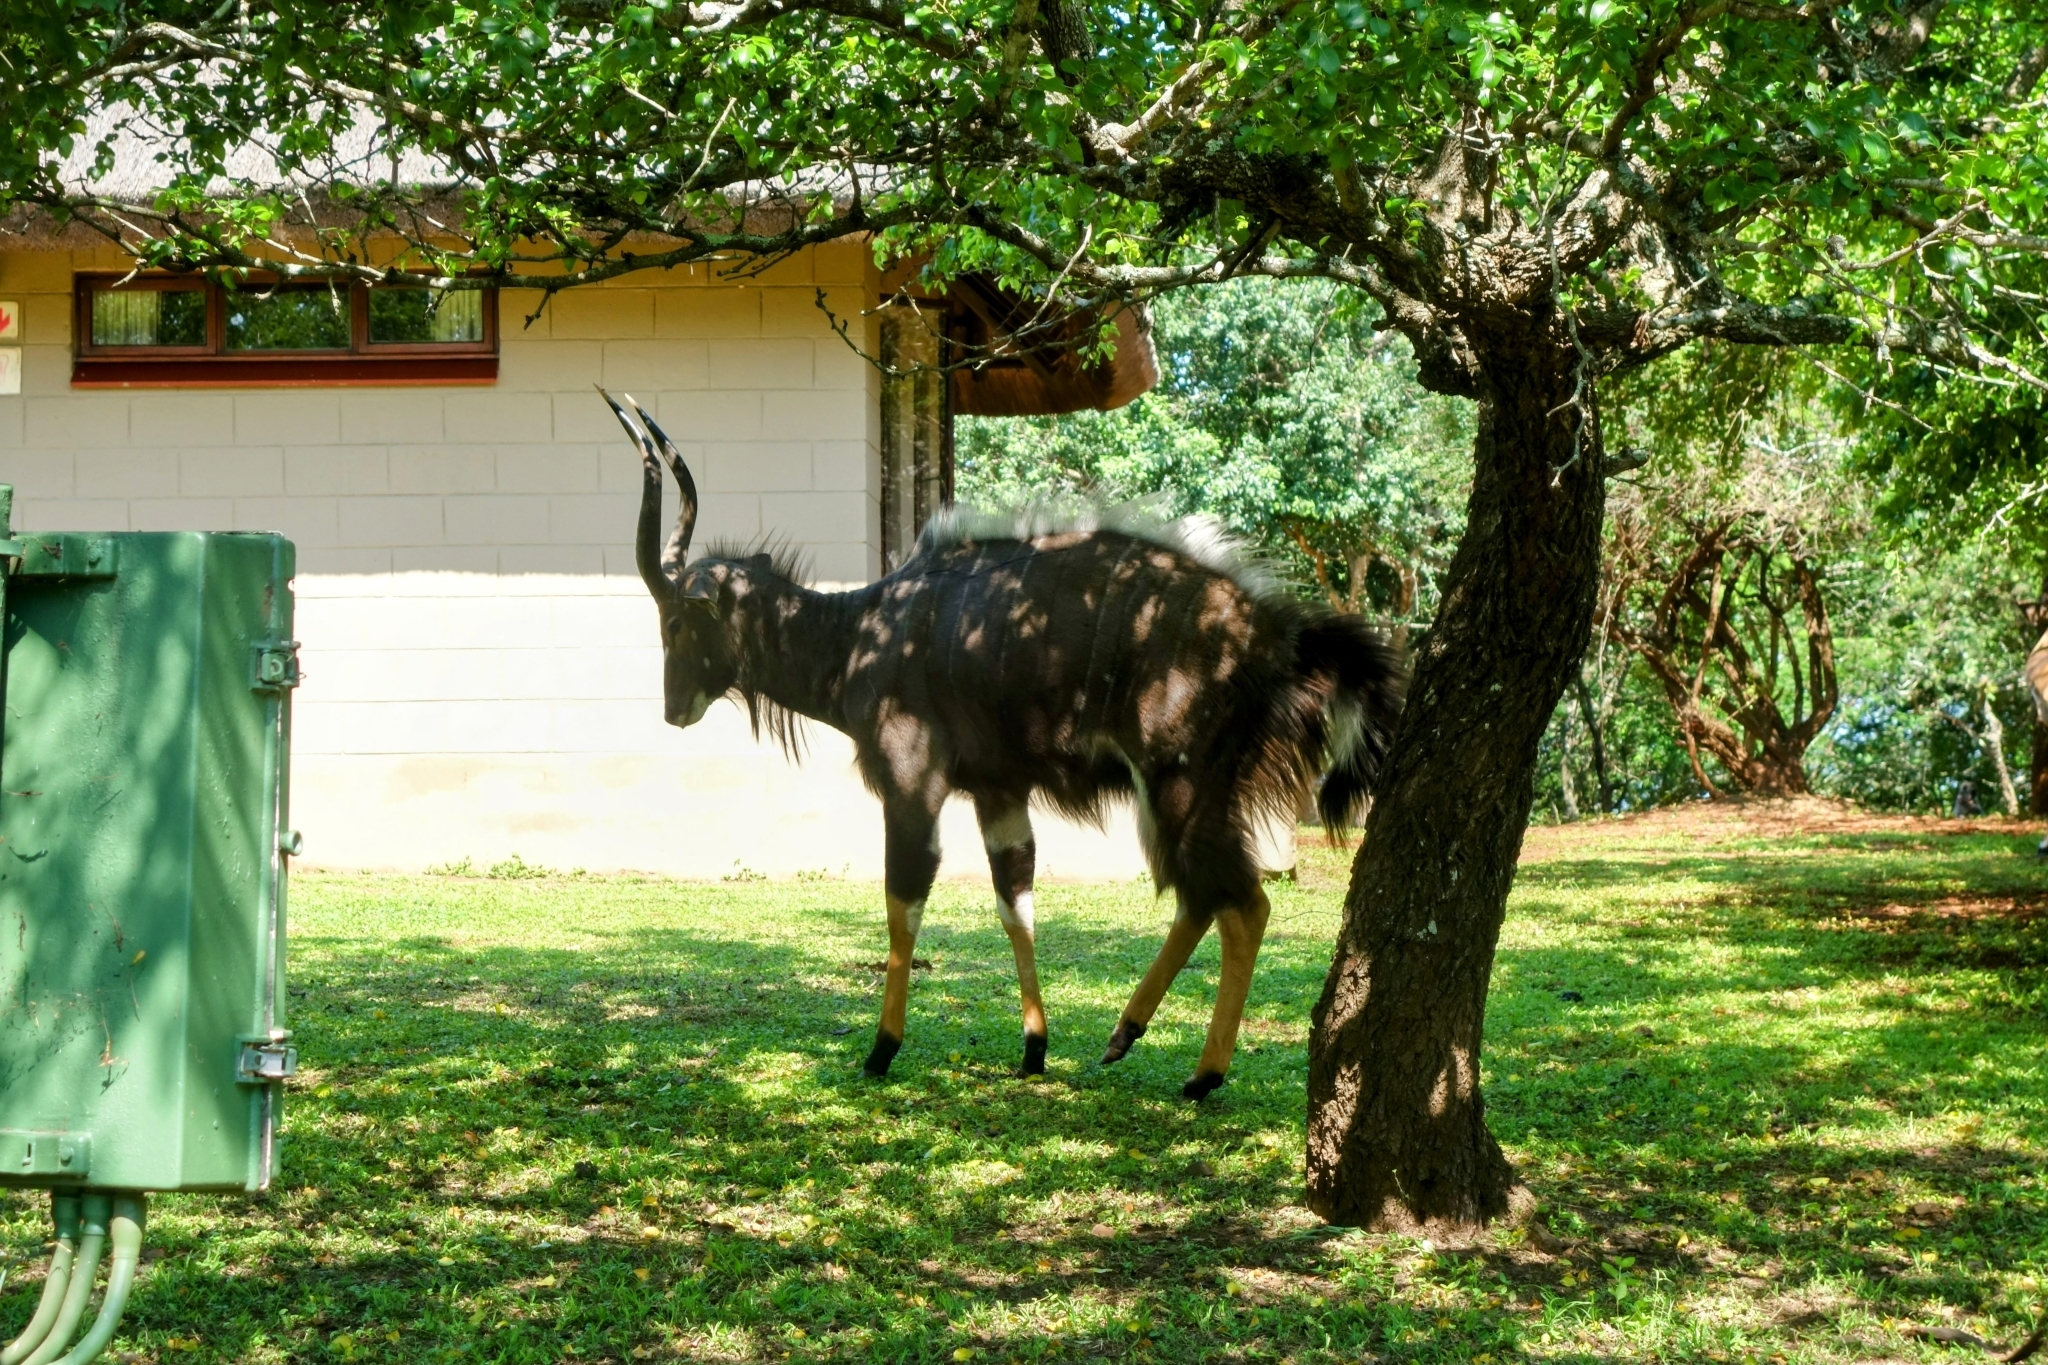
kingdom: Animalia
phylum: Chordata
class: Mammalia
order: Artiodactyla
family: Bovidae
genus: Tragelaphus
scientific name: Tragelaphus angasii
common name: Nyala
